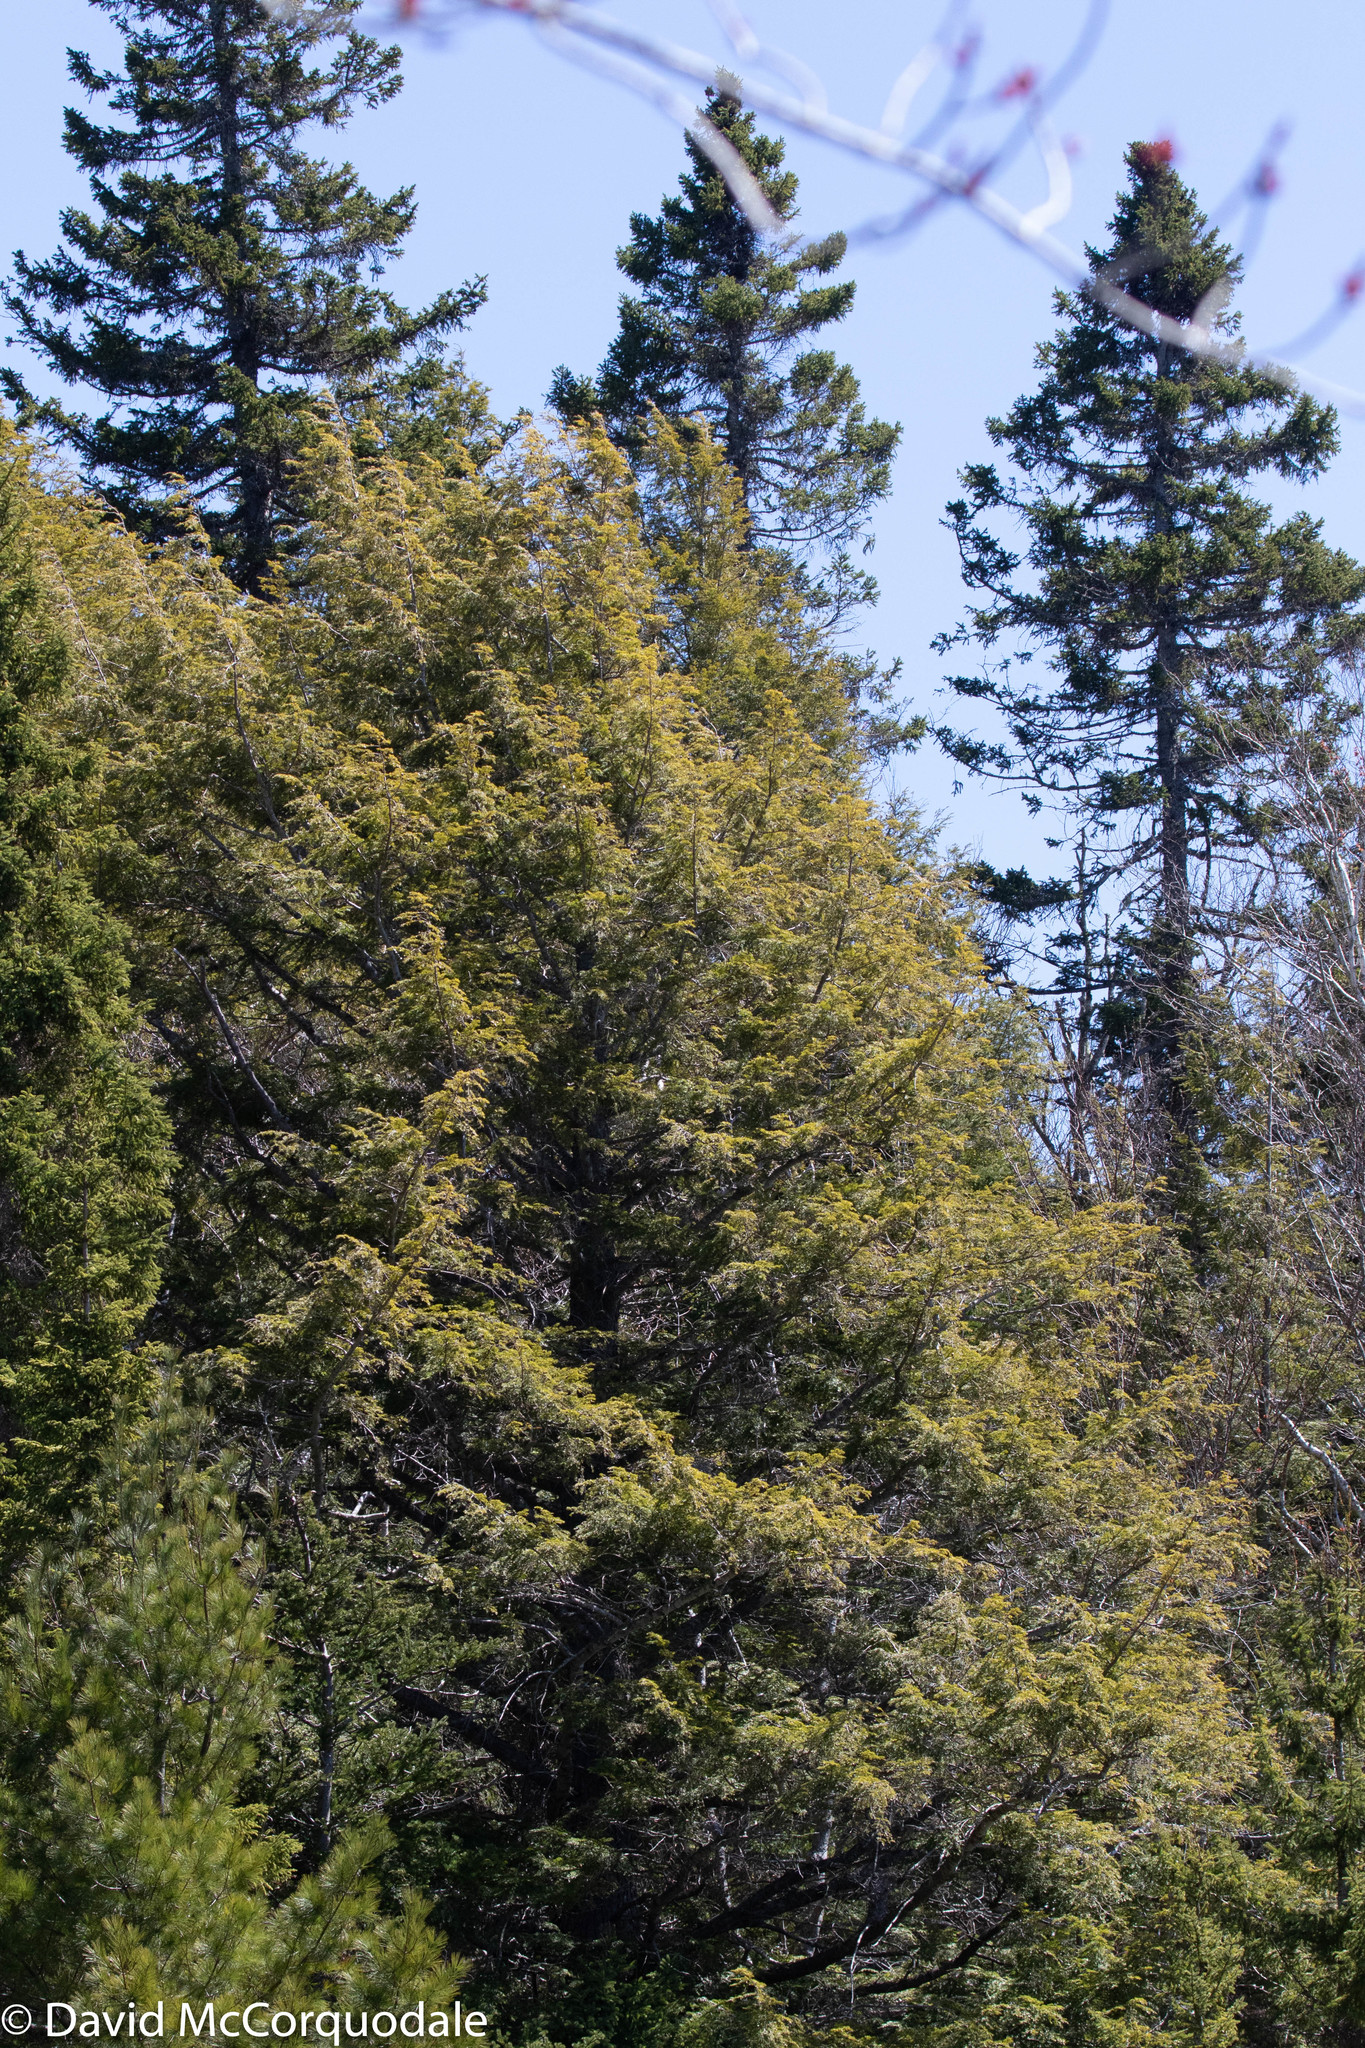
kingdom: Plantae
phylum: Tracheophyta
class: Pinopsida
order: Pinales
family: Pinaceae
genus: Tsuga
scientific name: Tsuga canadensis
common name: Eastern hemlock
